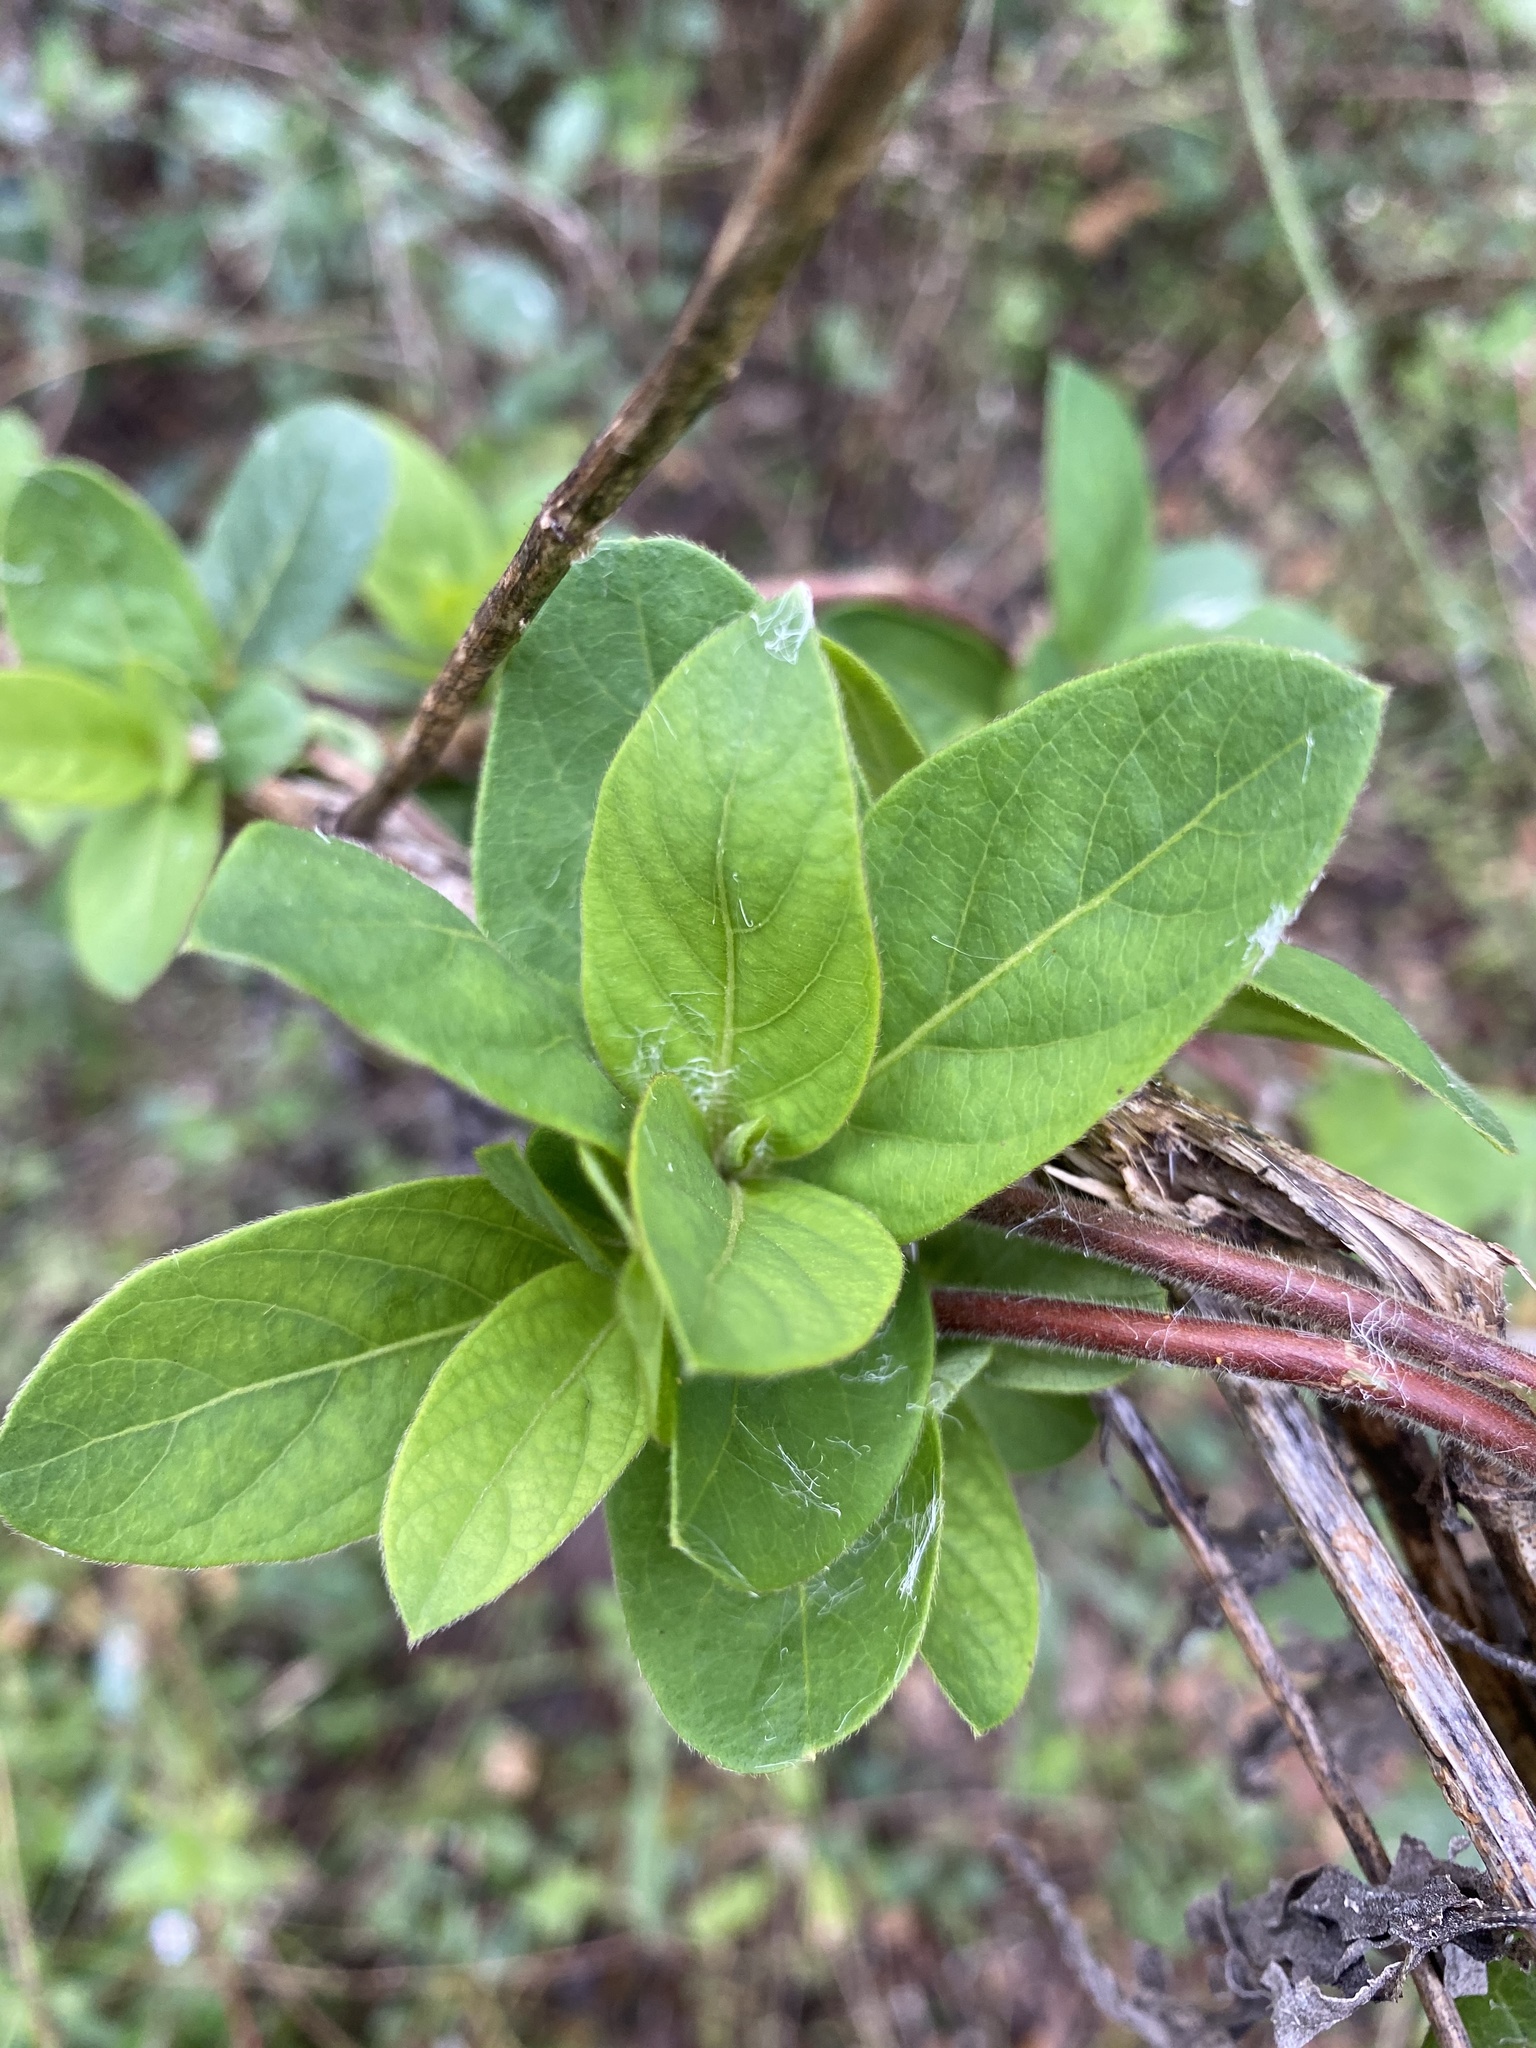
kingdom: Plantae
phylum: Tracheophyta
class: Magnoliopsida
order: Dipsacales
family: Caprifoliaceae
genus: Lonicera
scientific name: Lonicera japonica
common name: Japanese honeysuckle
